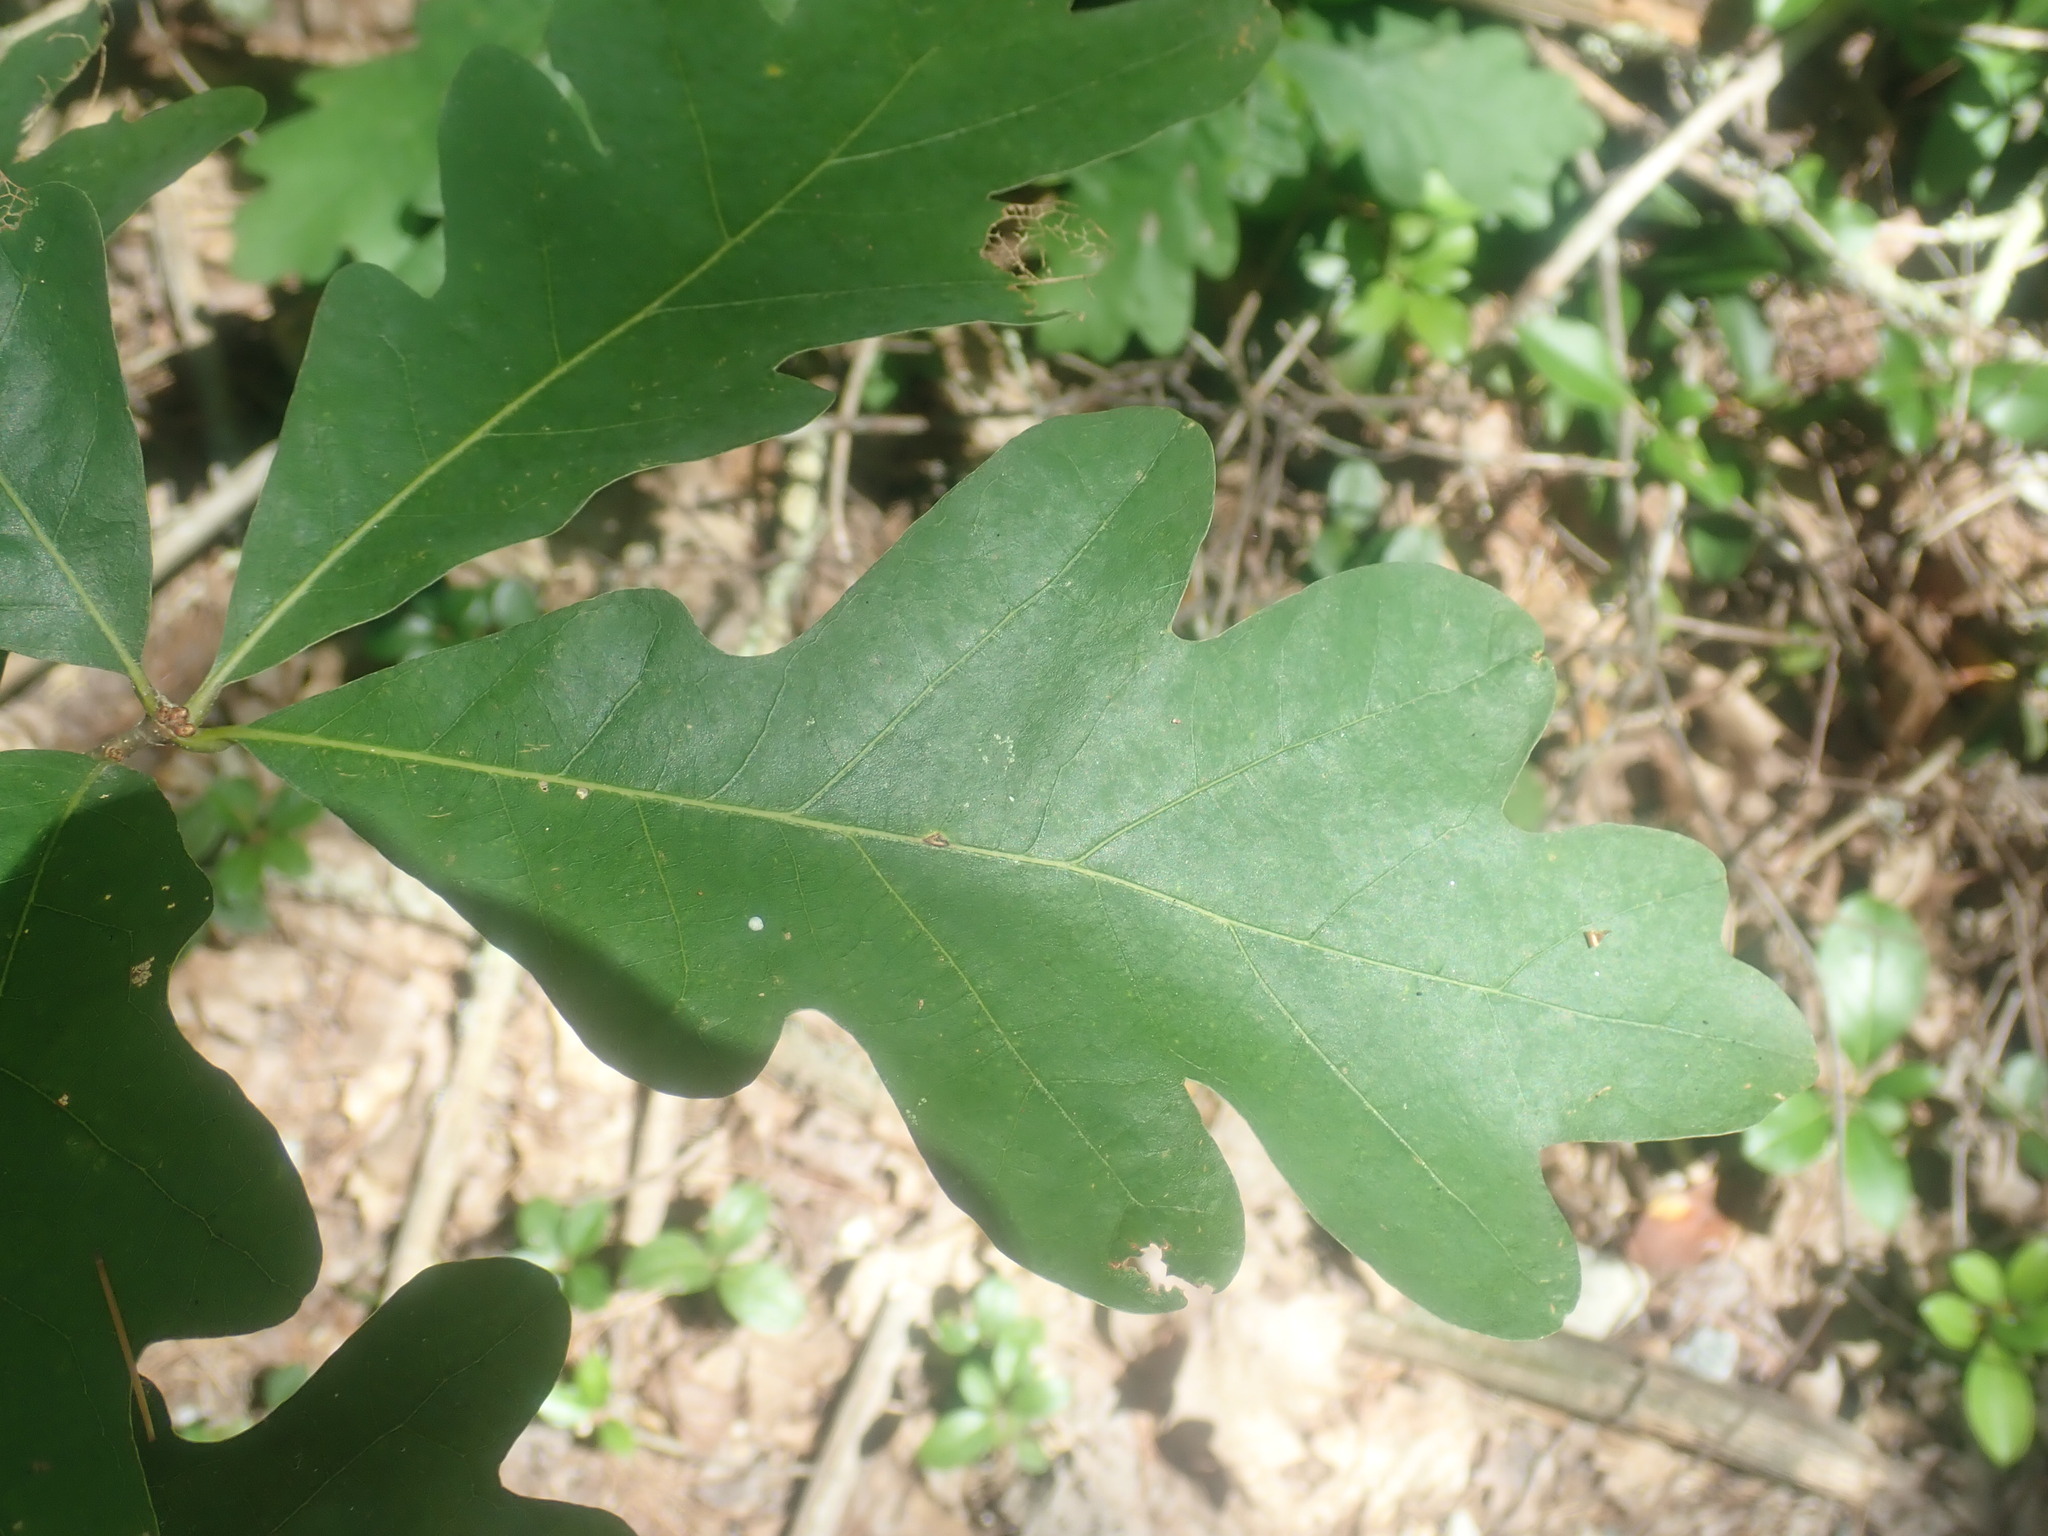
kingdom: Plantae
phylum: Tracheophyta
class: Magnoliopsida
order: Fagales
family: Fagaceae
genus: Quercus
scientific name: Quercus alba
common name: White oak
